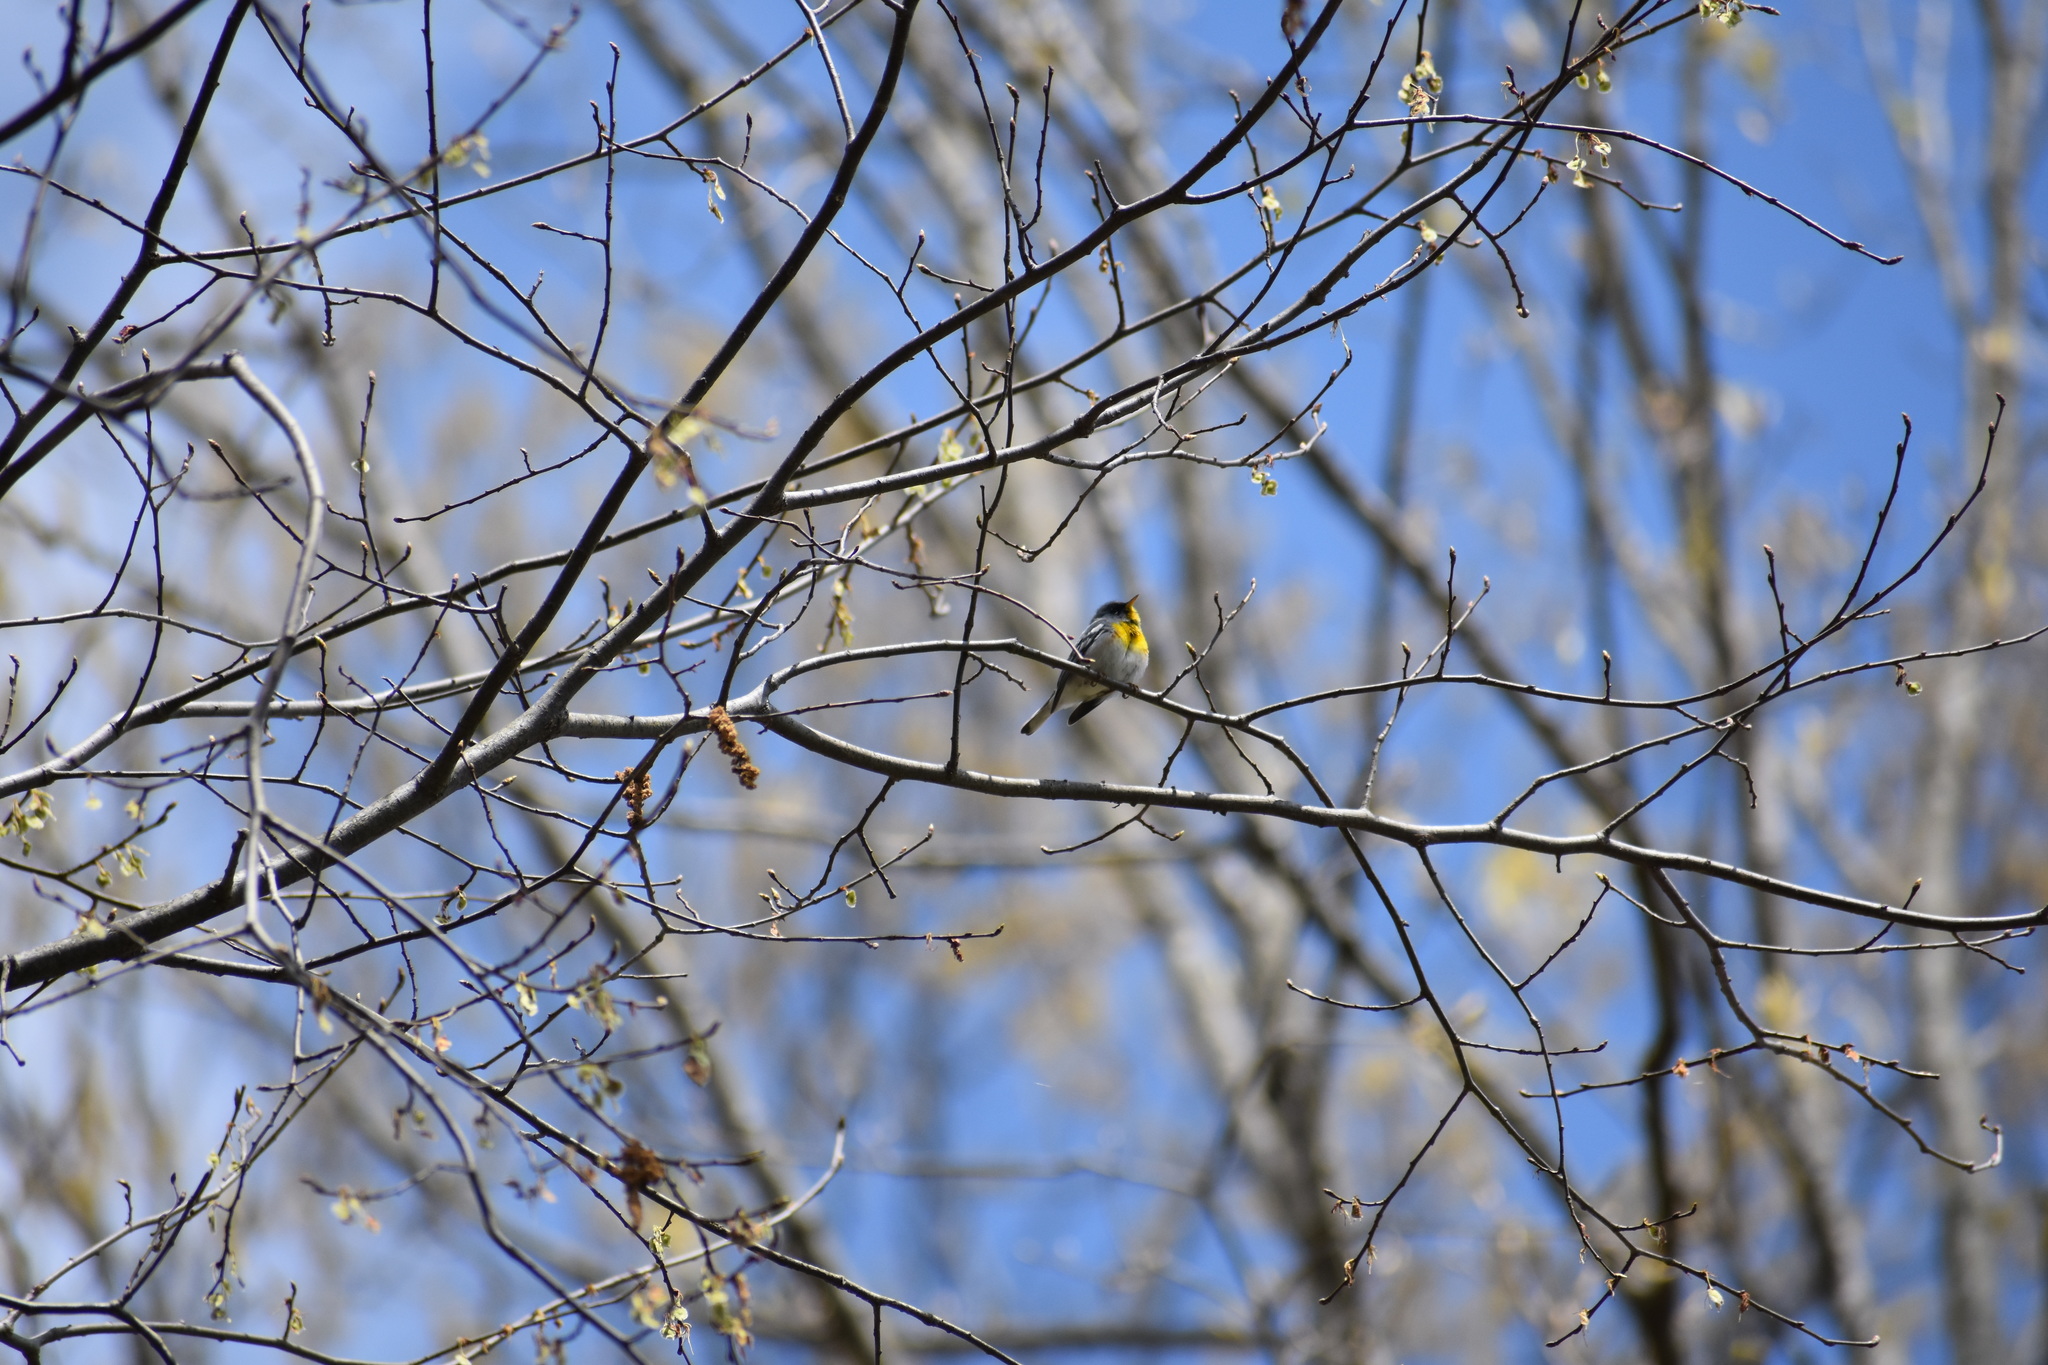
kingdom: Animalia
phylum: Chordata
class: Aves
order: Passeriformes
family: Parulidae
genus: Setophaga
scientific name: Setophaga americana
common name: Northern parula
